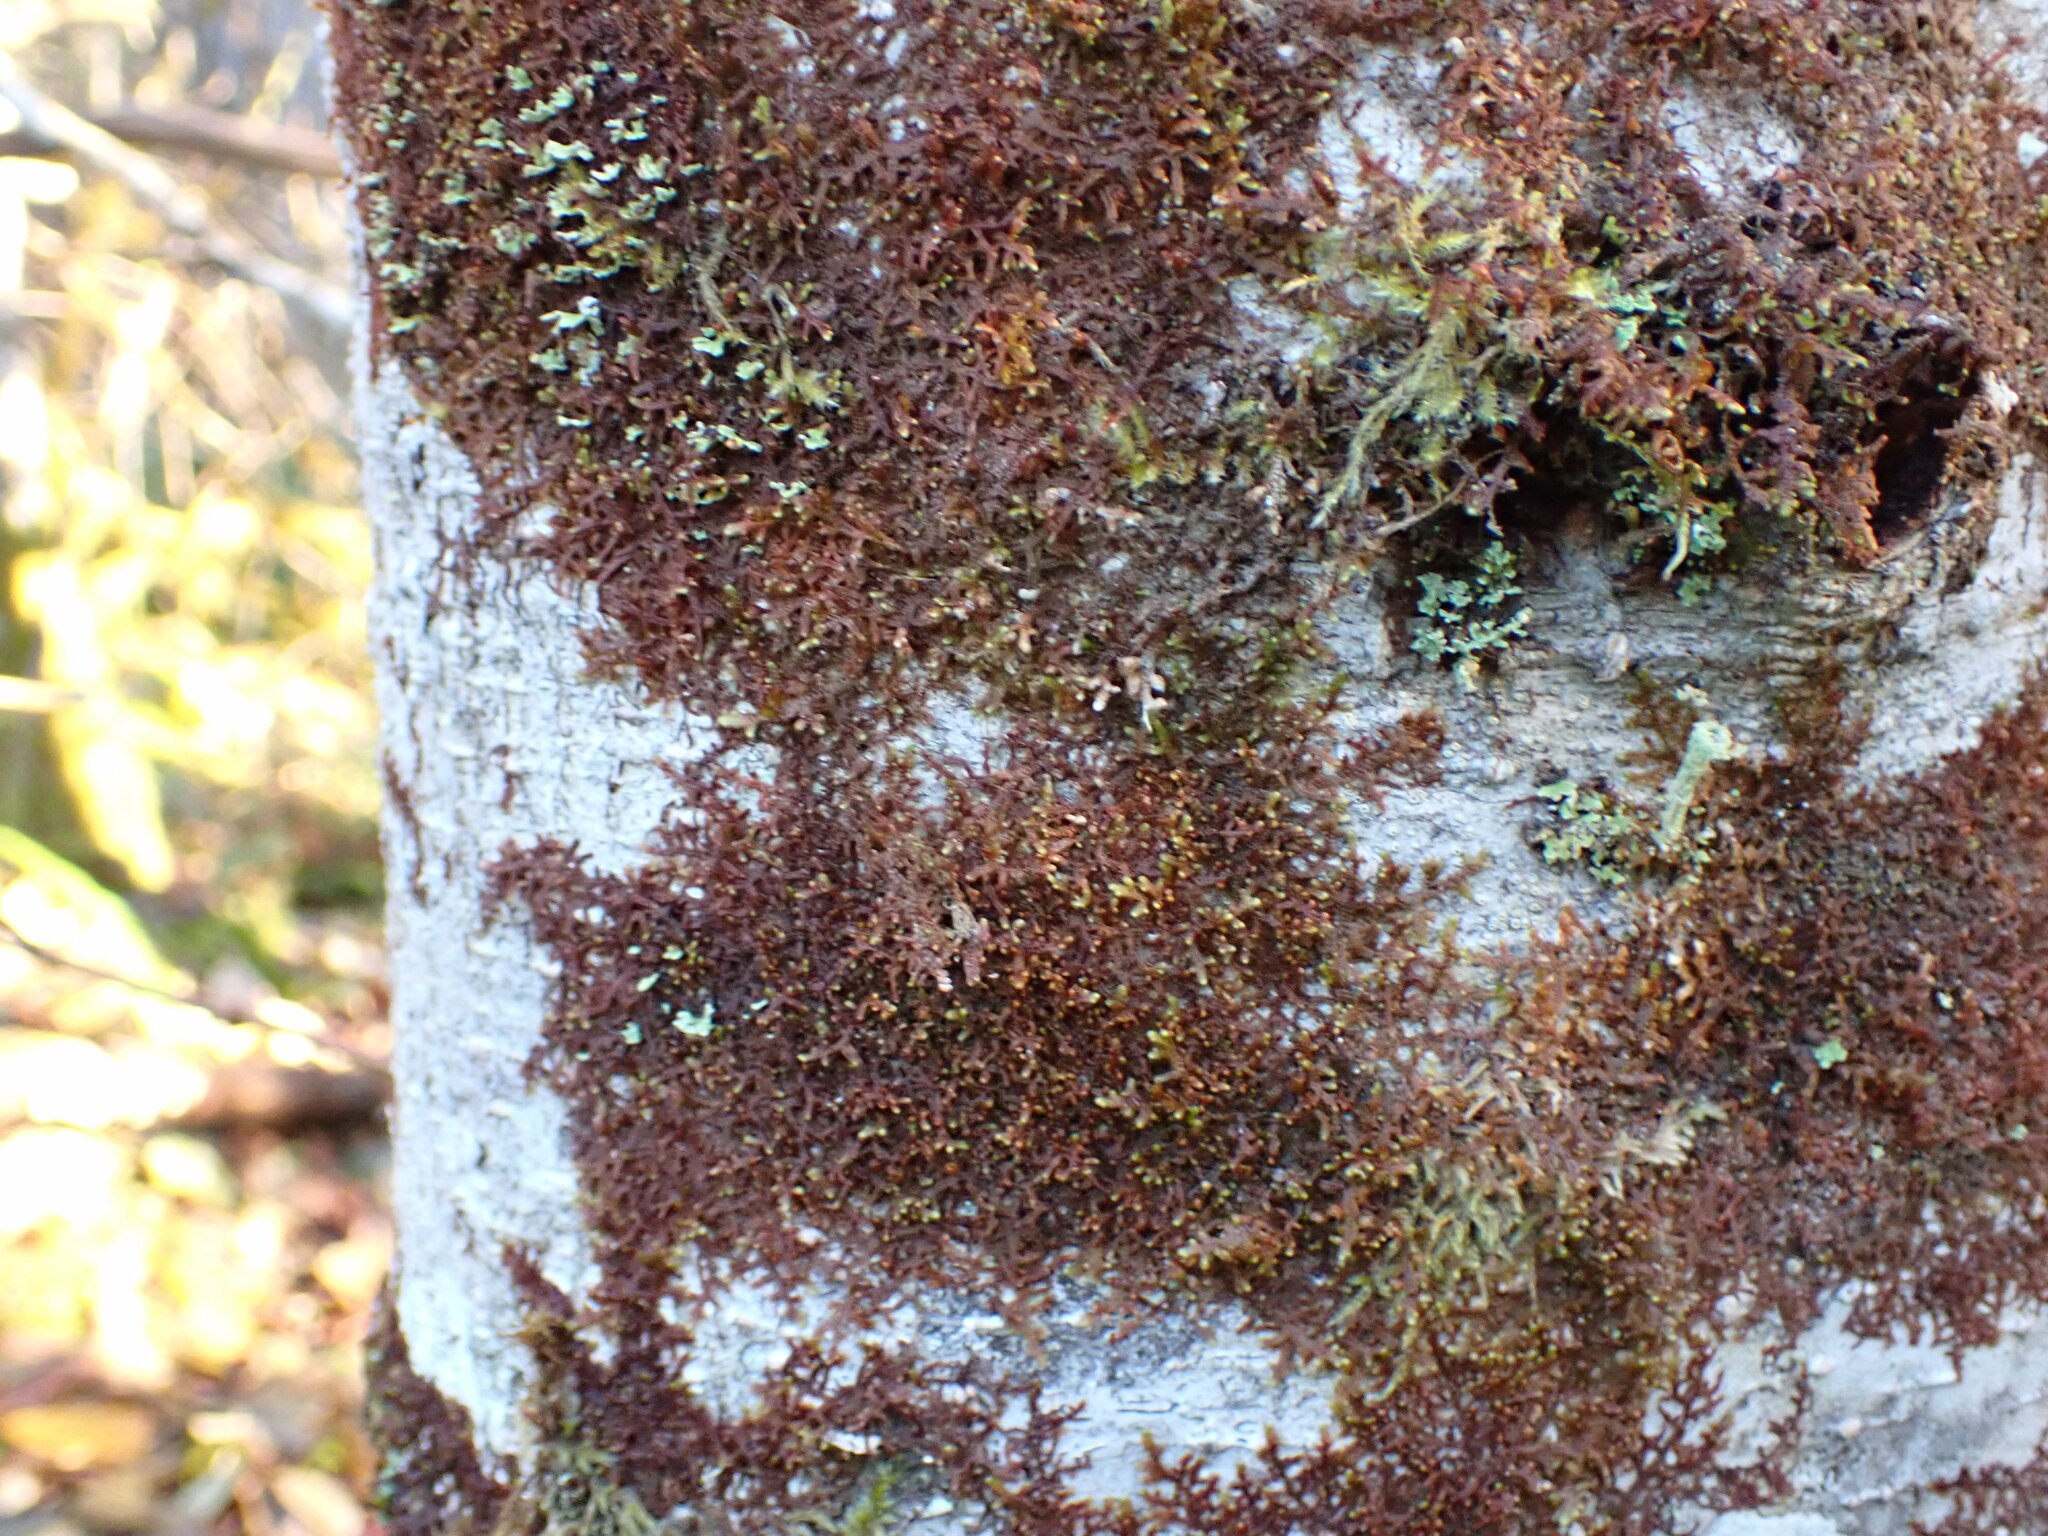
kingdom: Plantae
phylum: Marchantiophyta
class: Jungermanniopsida
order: Porellales
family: Frullaniaceae
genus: Frullania
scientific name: Frullania nisquallensis
